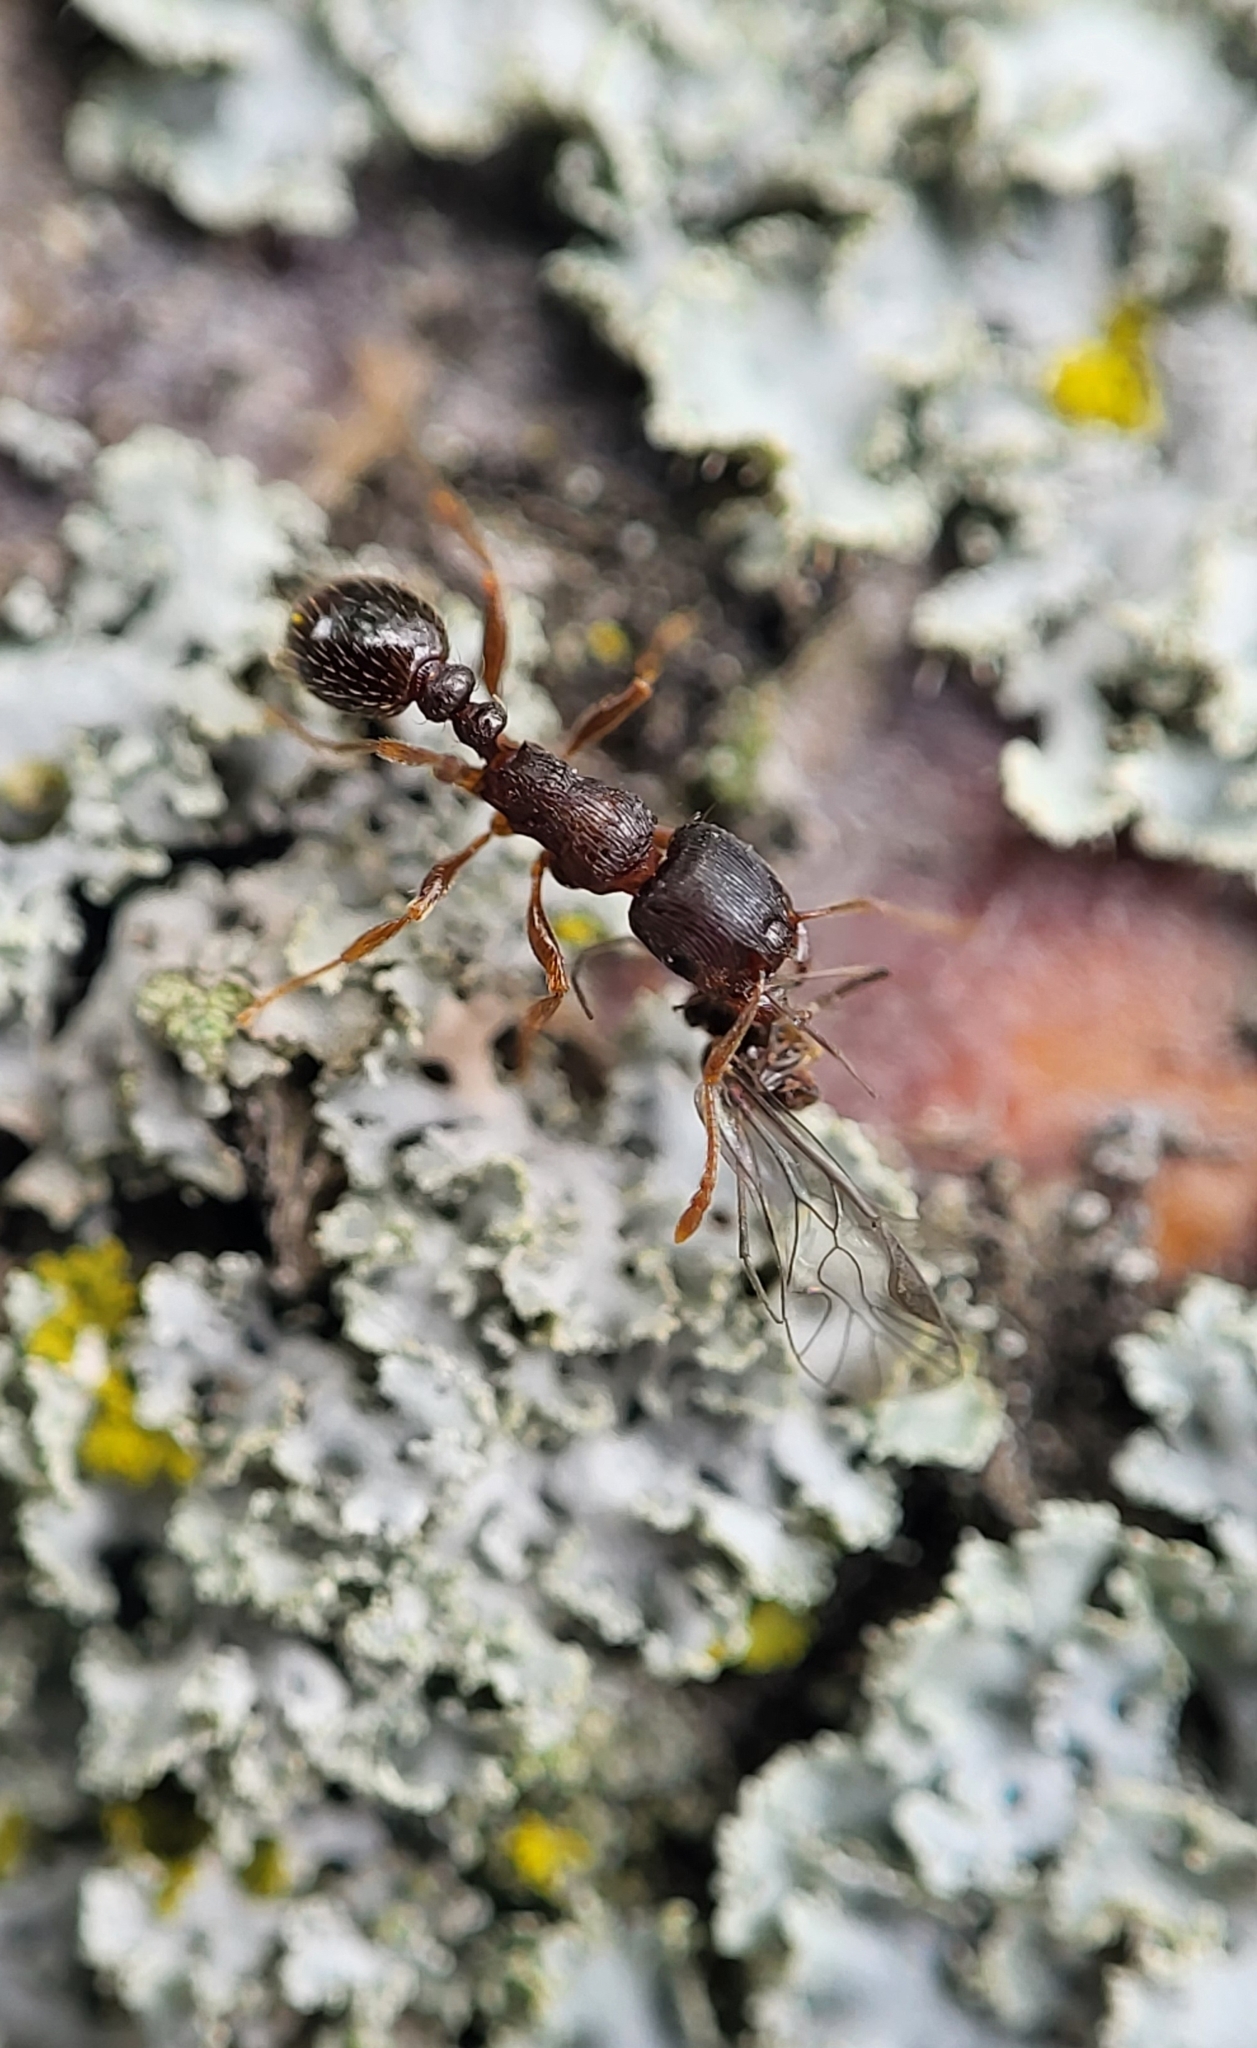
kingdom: Animalia
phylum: Arthropoda
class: Insecta
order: Hymenoptera
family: Formicidae
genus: Tetramorium
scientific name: Tetramorium immigrans
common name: Pavement ant
